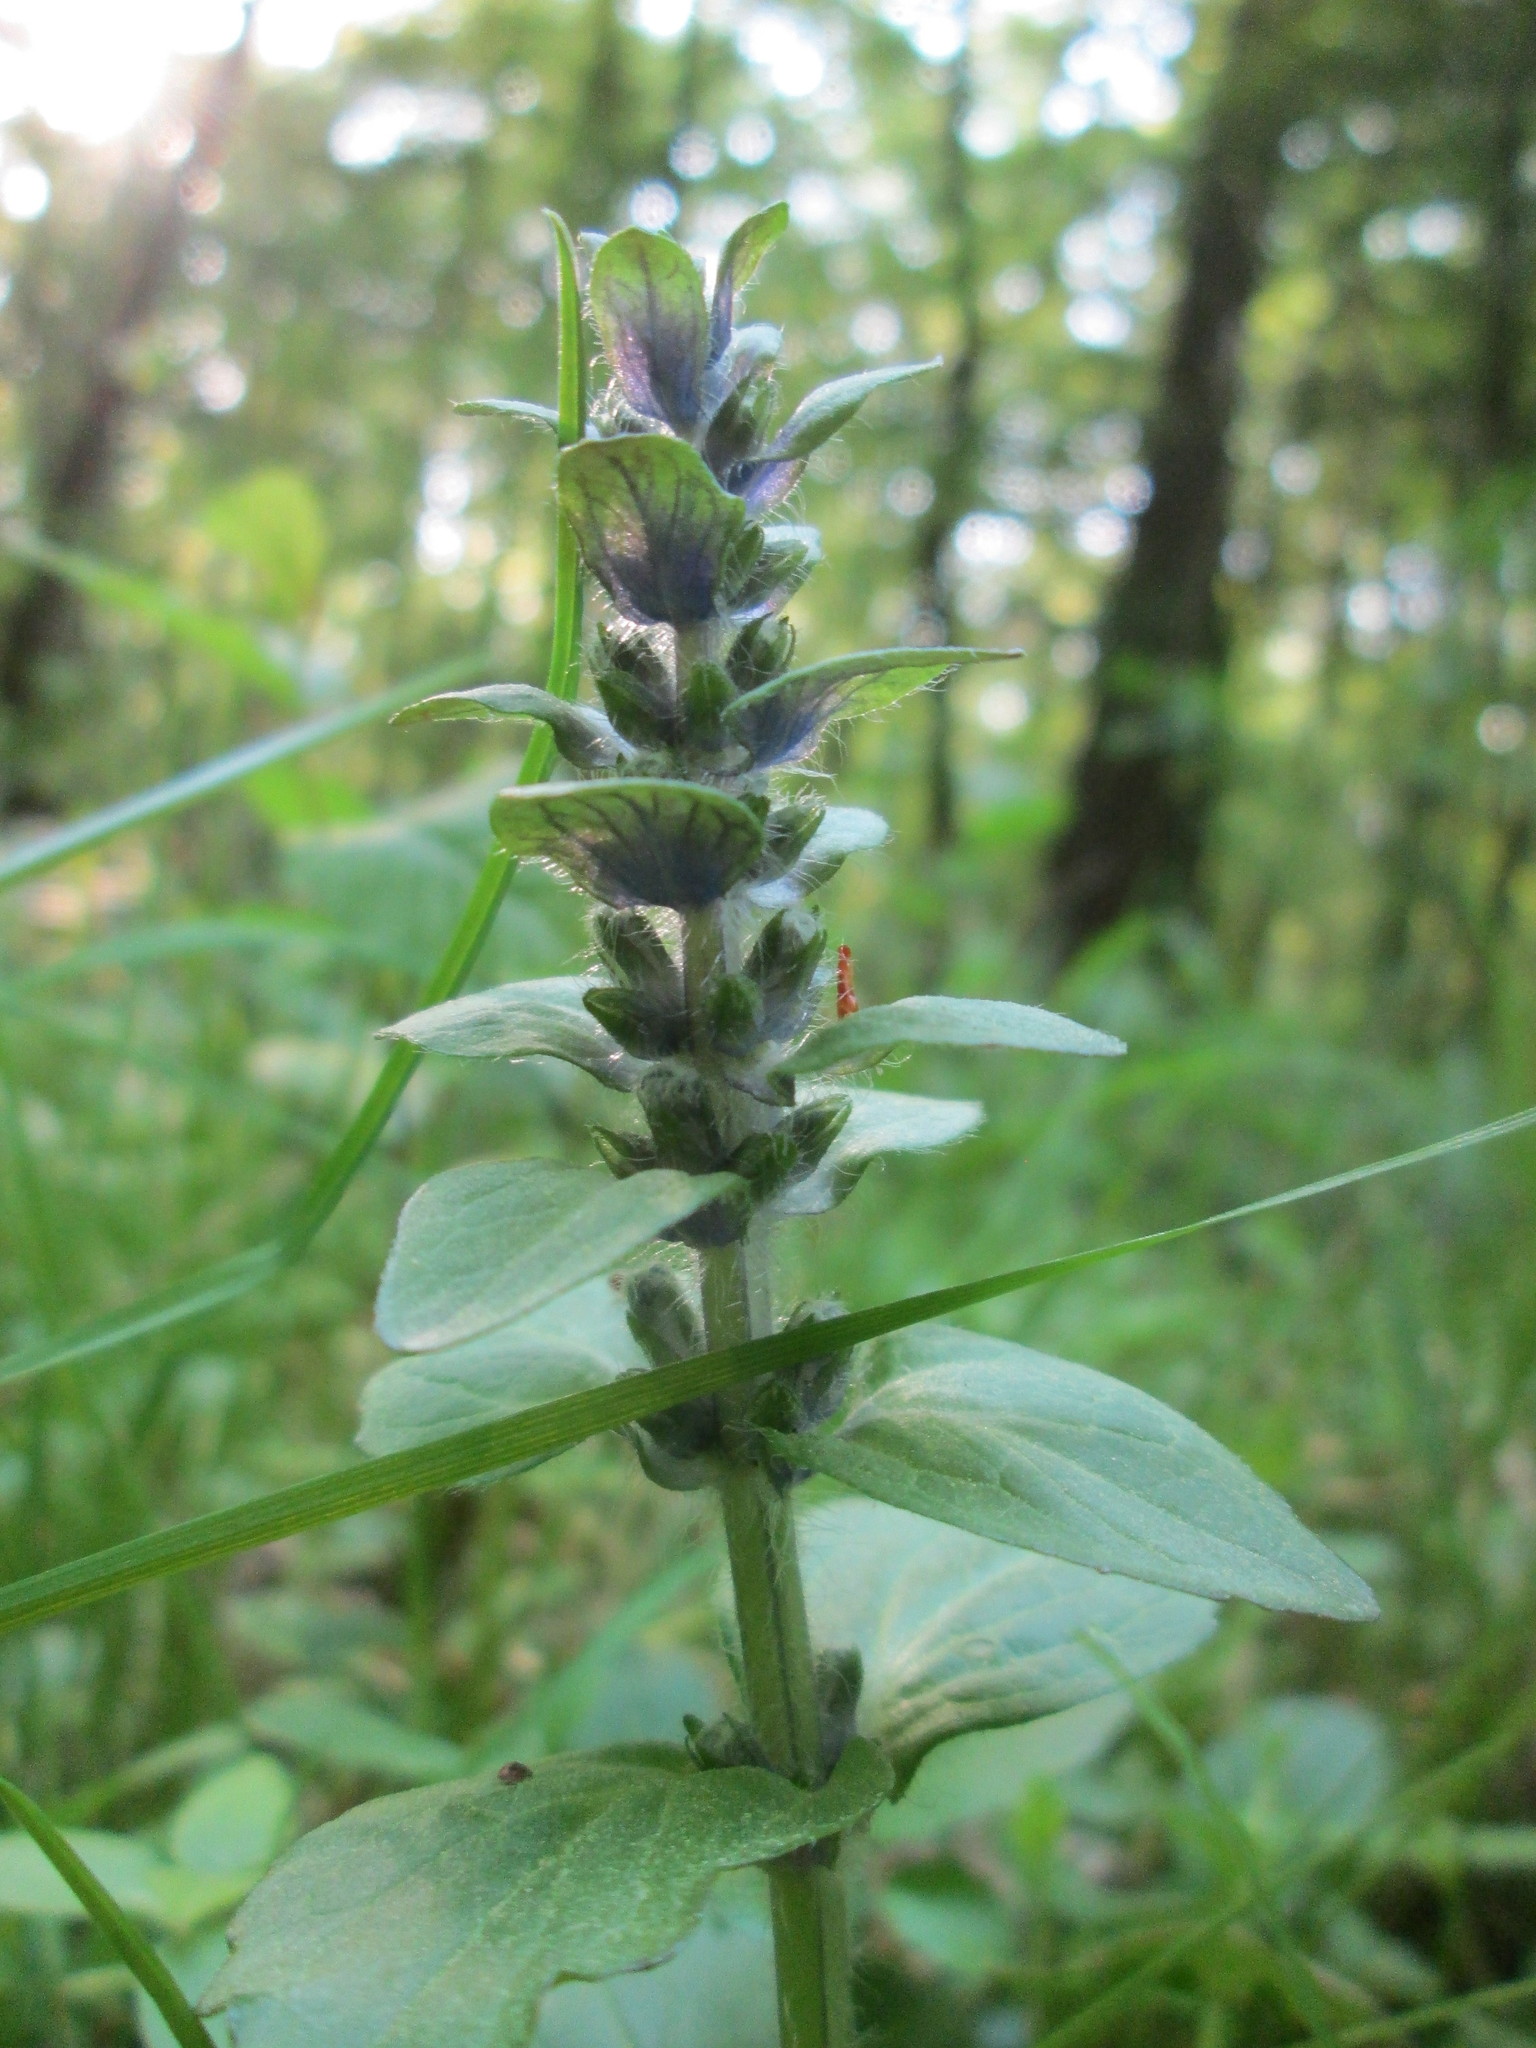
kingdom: Plantae
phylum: Tracheophyta
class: Magnoliopsida
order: Lamiales
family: Lamiaceae
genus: Ajuga
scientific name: Ajuga reptans
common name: Bugle
